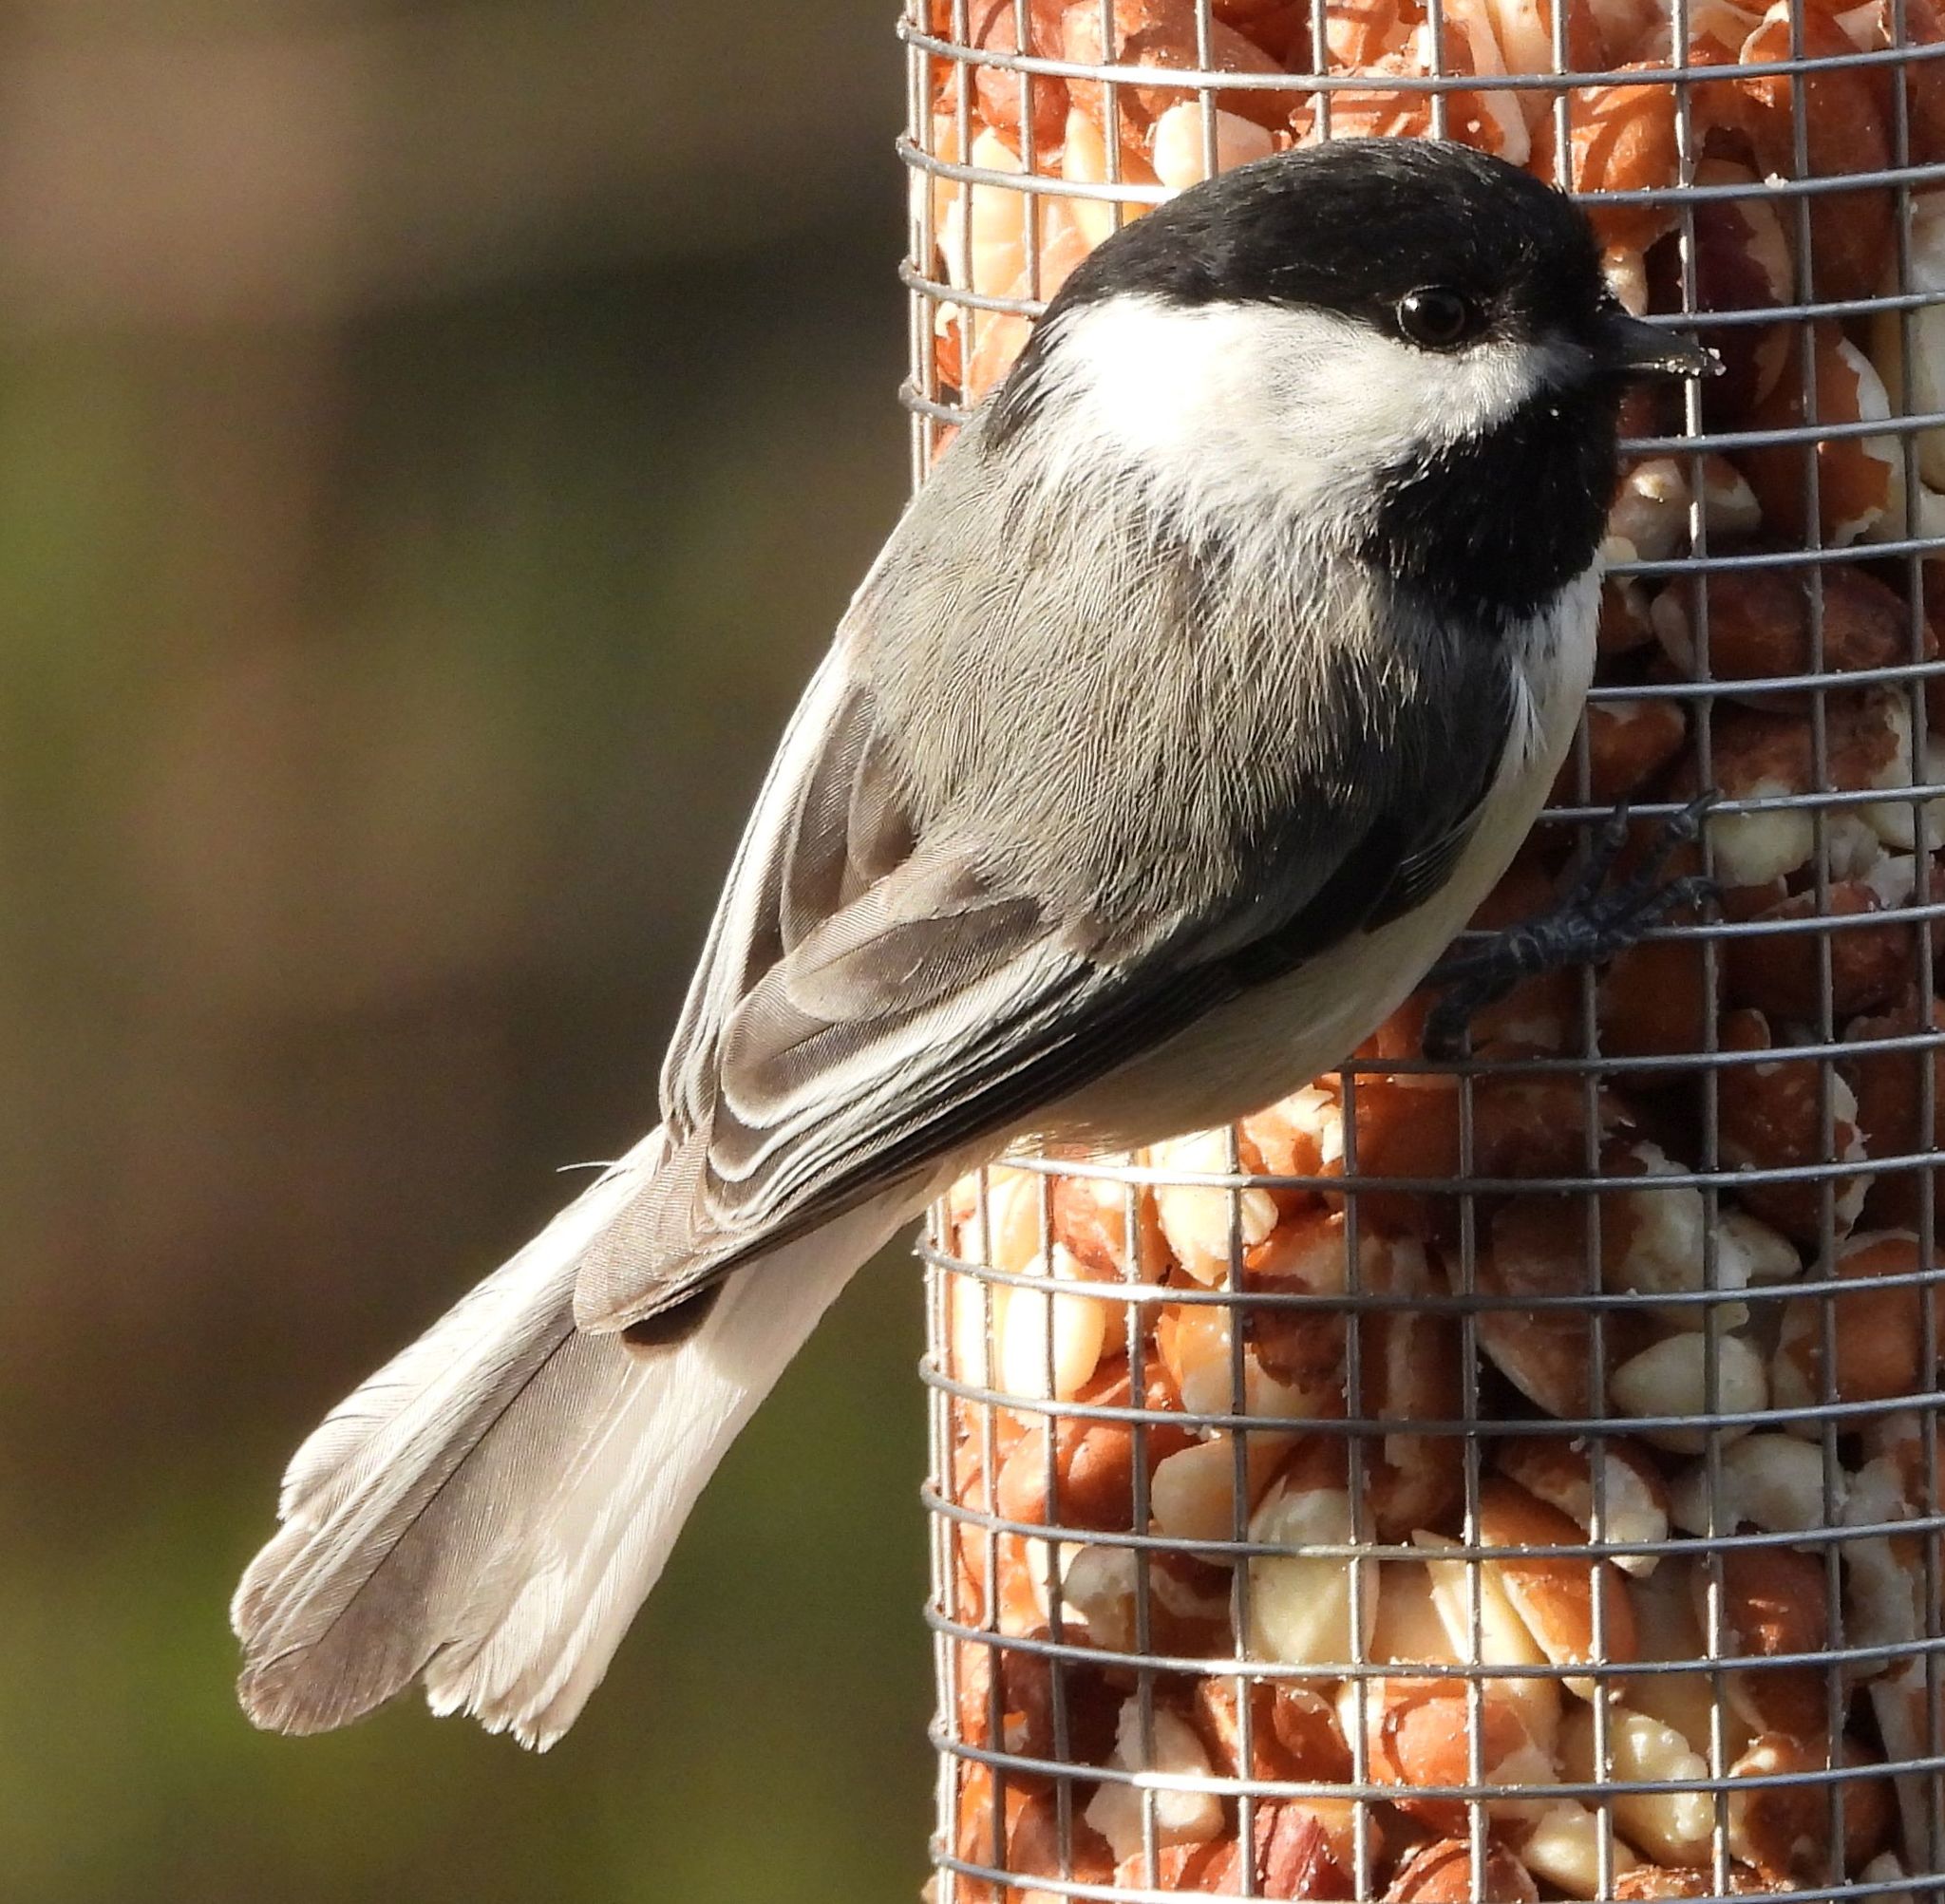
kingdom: Animalia
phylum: Chordata
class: Aves
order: Passeriformes
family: Paridae
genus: Poecile
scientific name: Poecile atricapillus
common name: Black-capped chickadee
